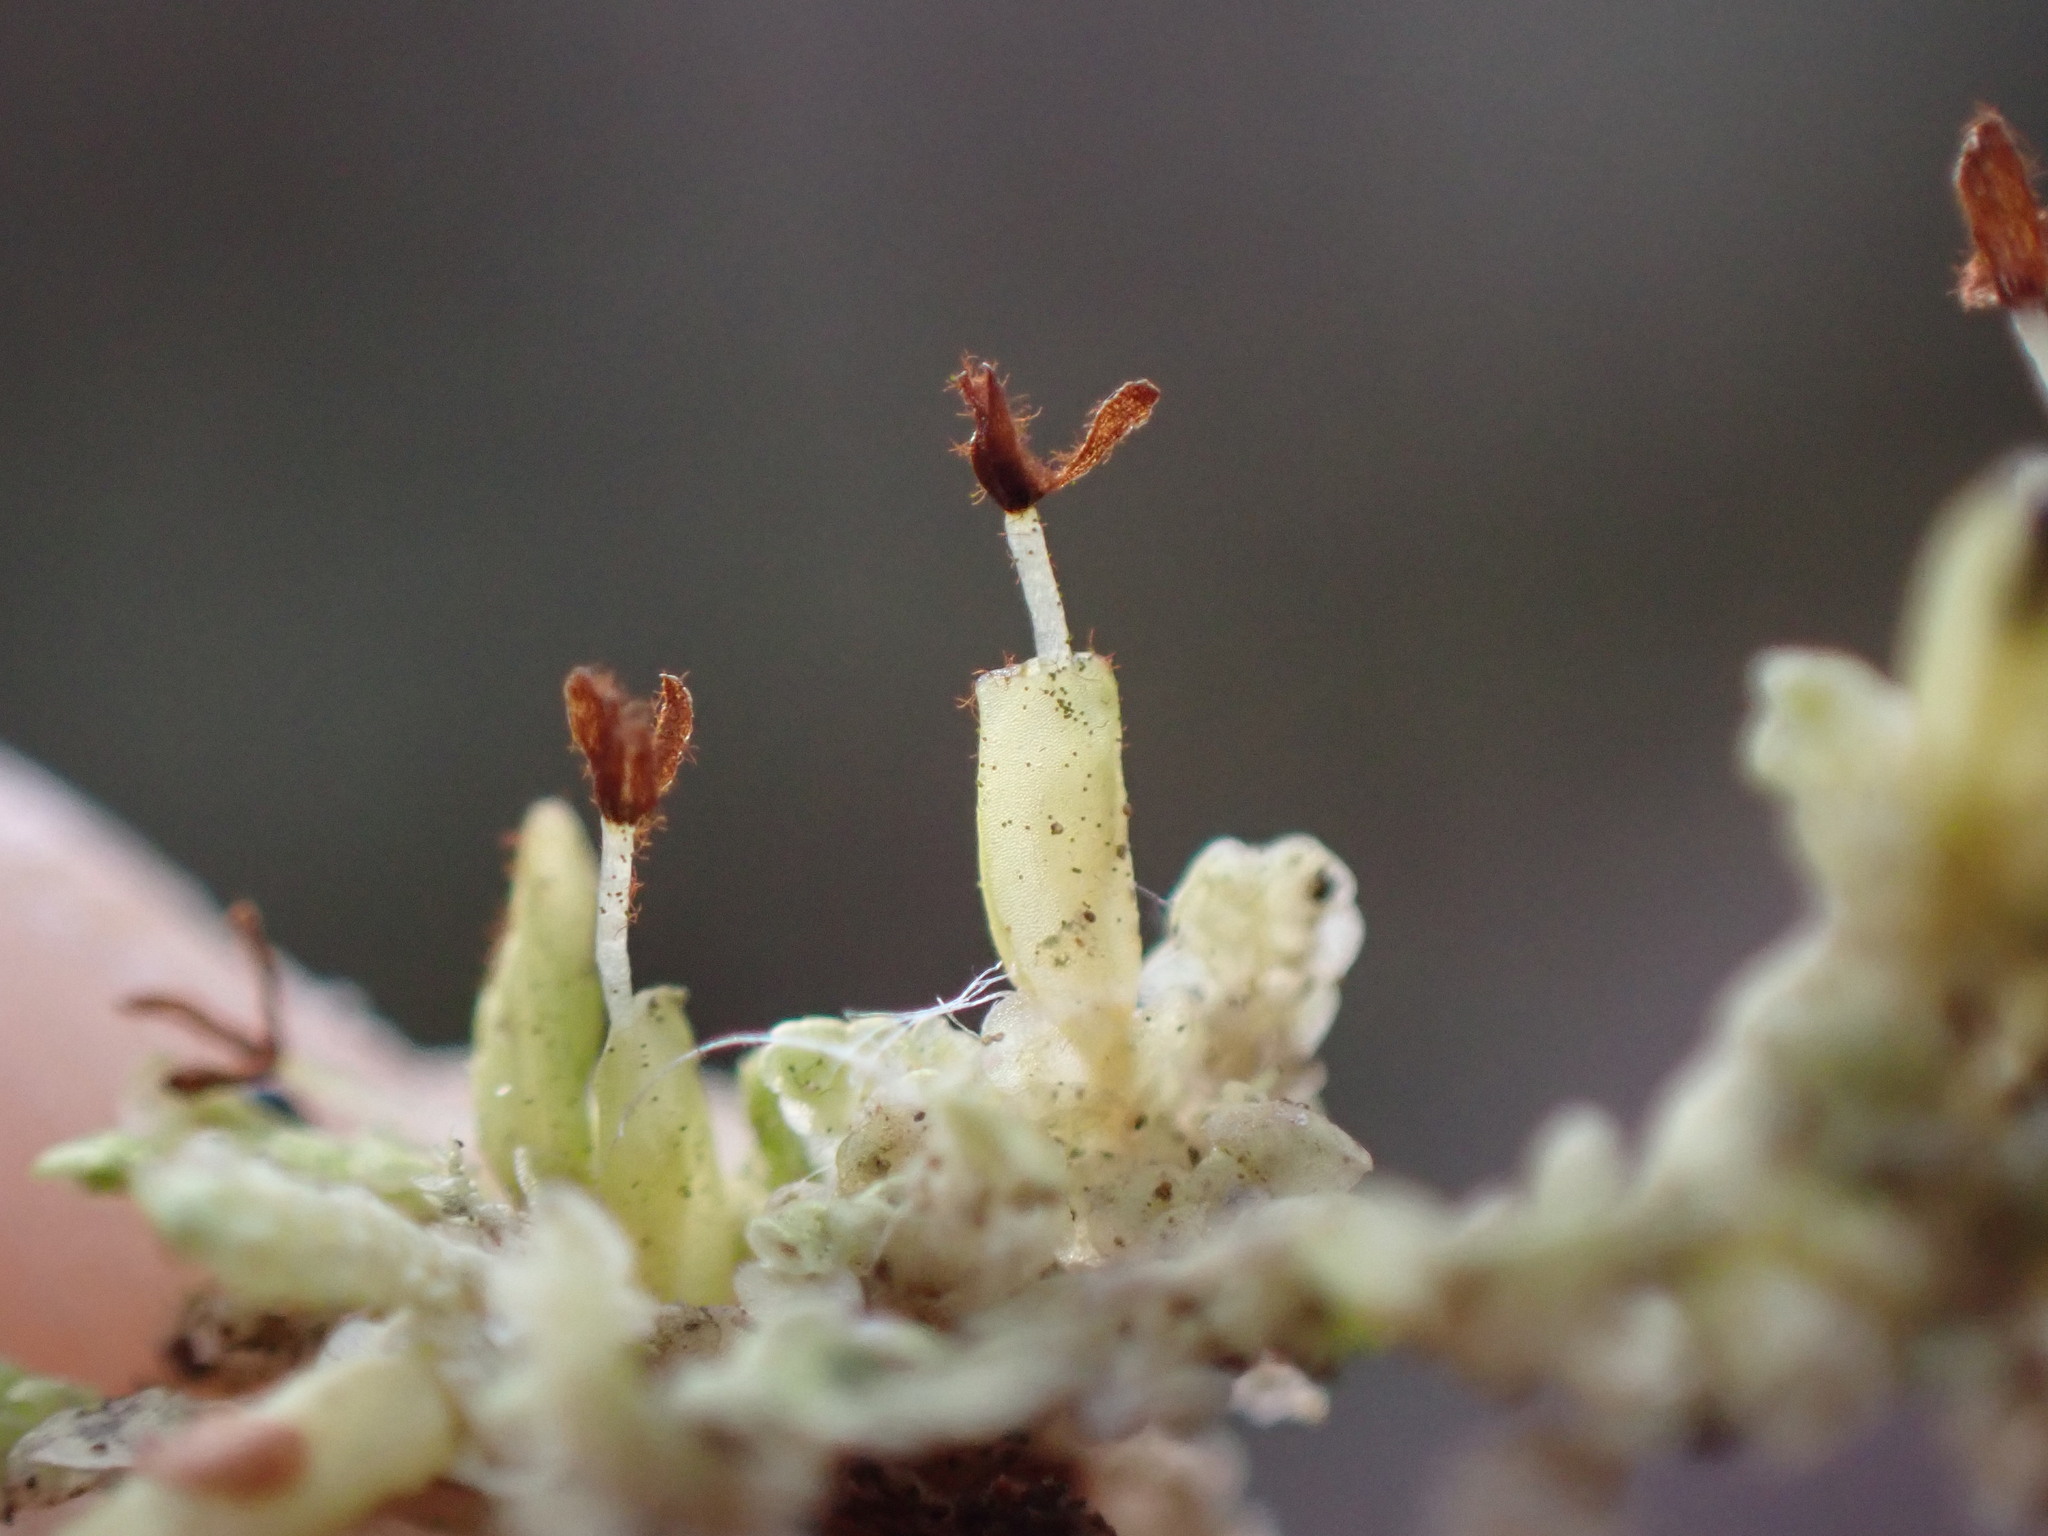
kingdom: Plantae
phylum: Marchantiophyta
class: Jungermanniopsida
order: Porellales
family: Radulaceae
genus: Radula
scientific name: Radula complanata
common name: Flat-leaved scalewort
